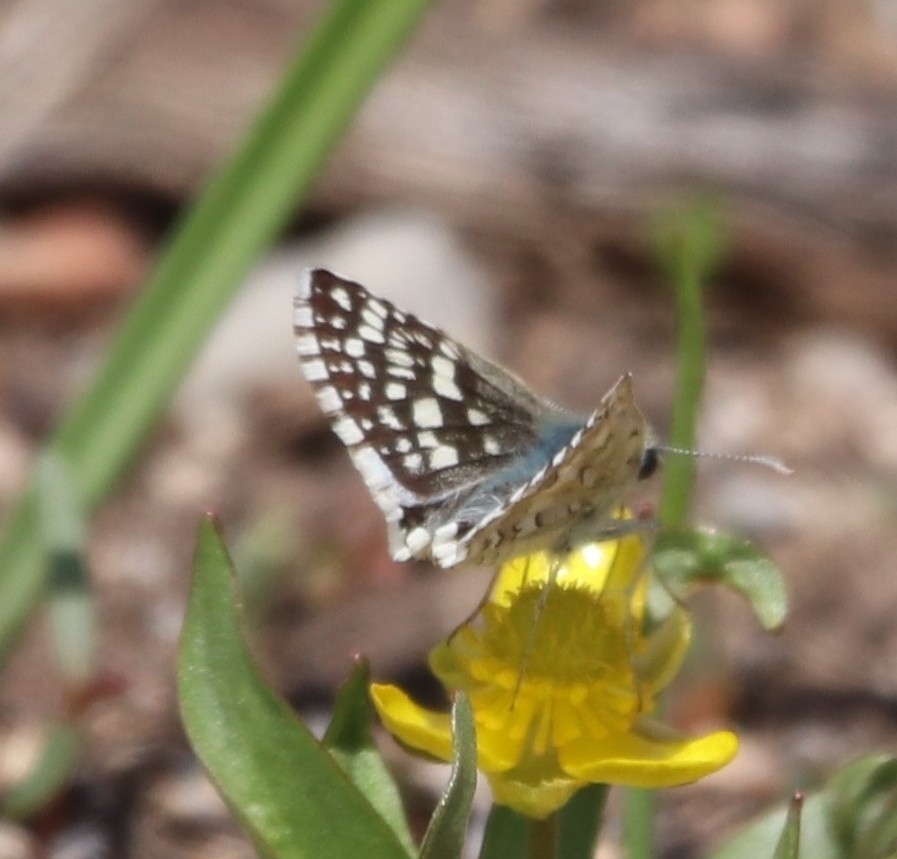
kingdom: Animalia
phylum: Arthropoda
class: Insecta
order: Lepidoptera
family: Hesperiidae
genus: Burnsius
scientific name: Burnsius communis
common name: Common checkered-skipper
